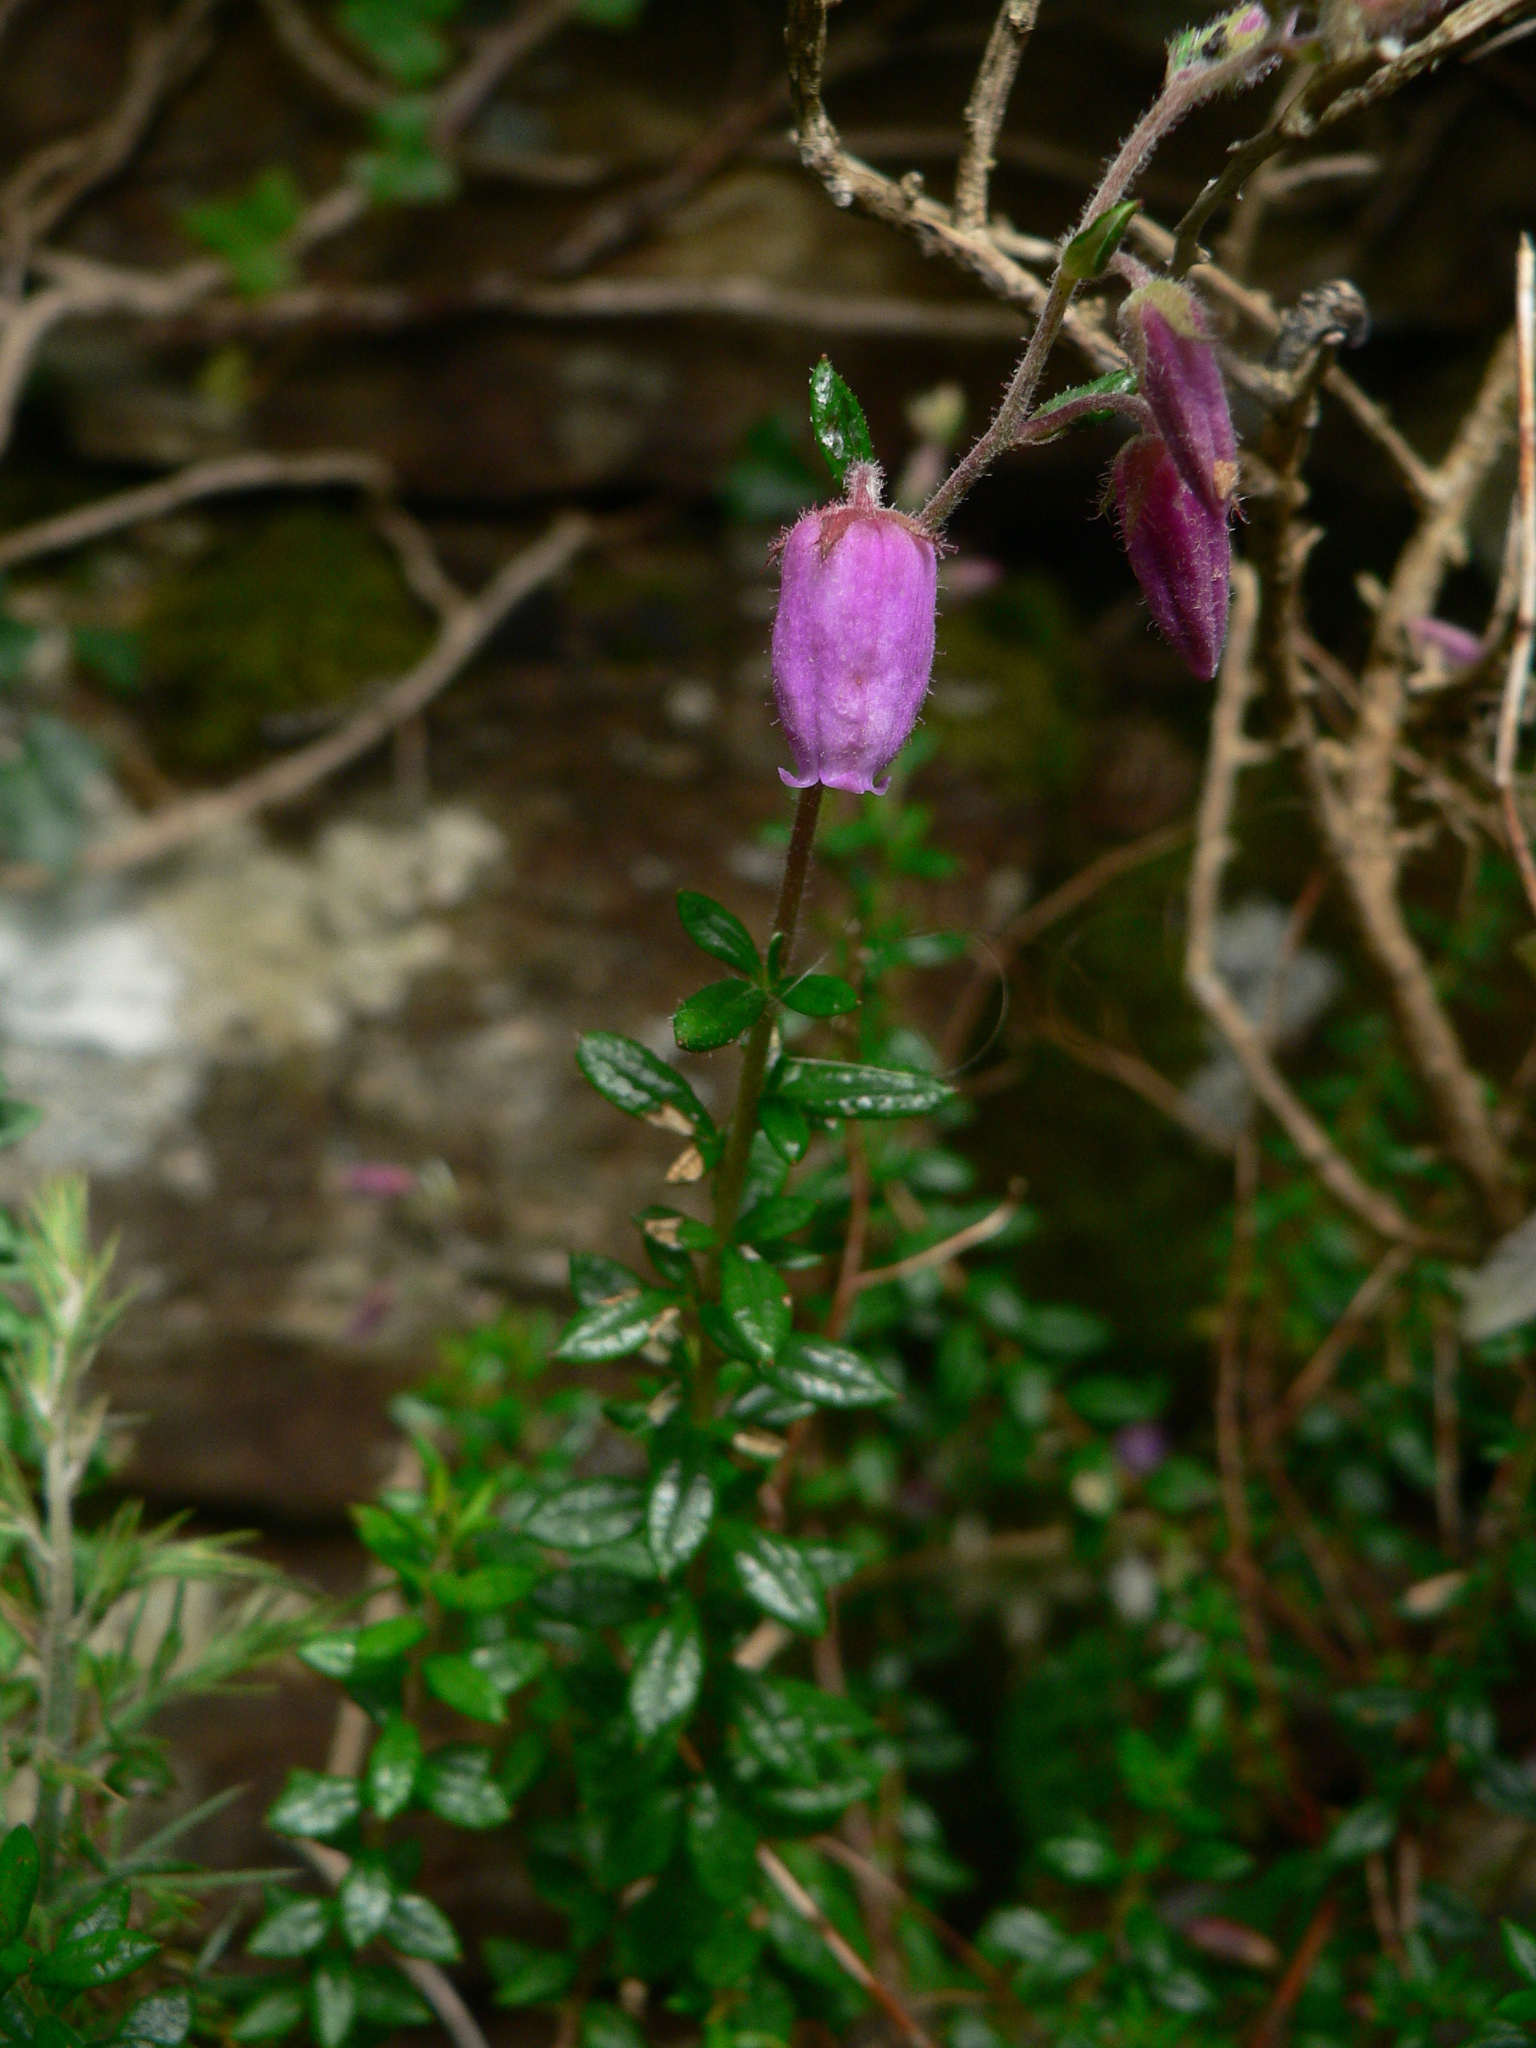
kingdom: Plantae
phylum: Tracheophyta
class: Magnoliopsida
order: Ericales
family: Ericaceae
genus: Daboecia
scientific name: Daboecia cantabrica
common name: St. dabeoc's-heath
